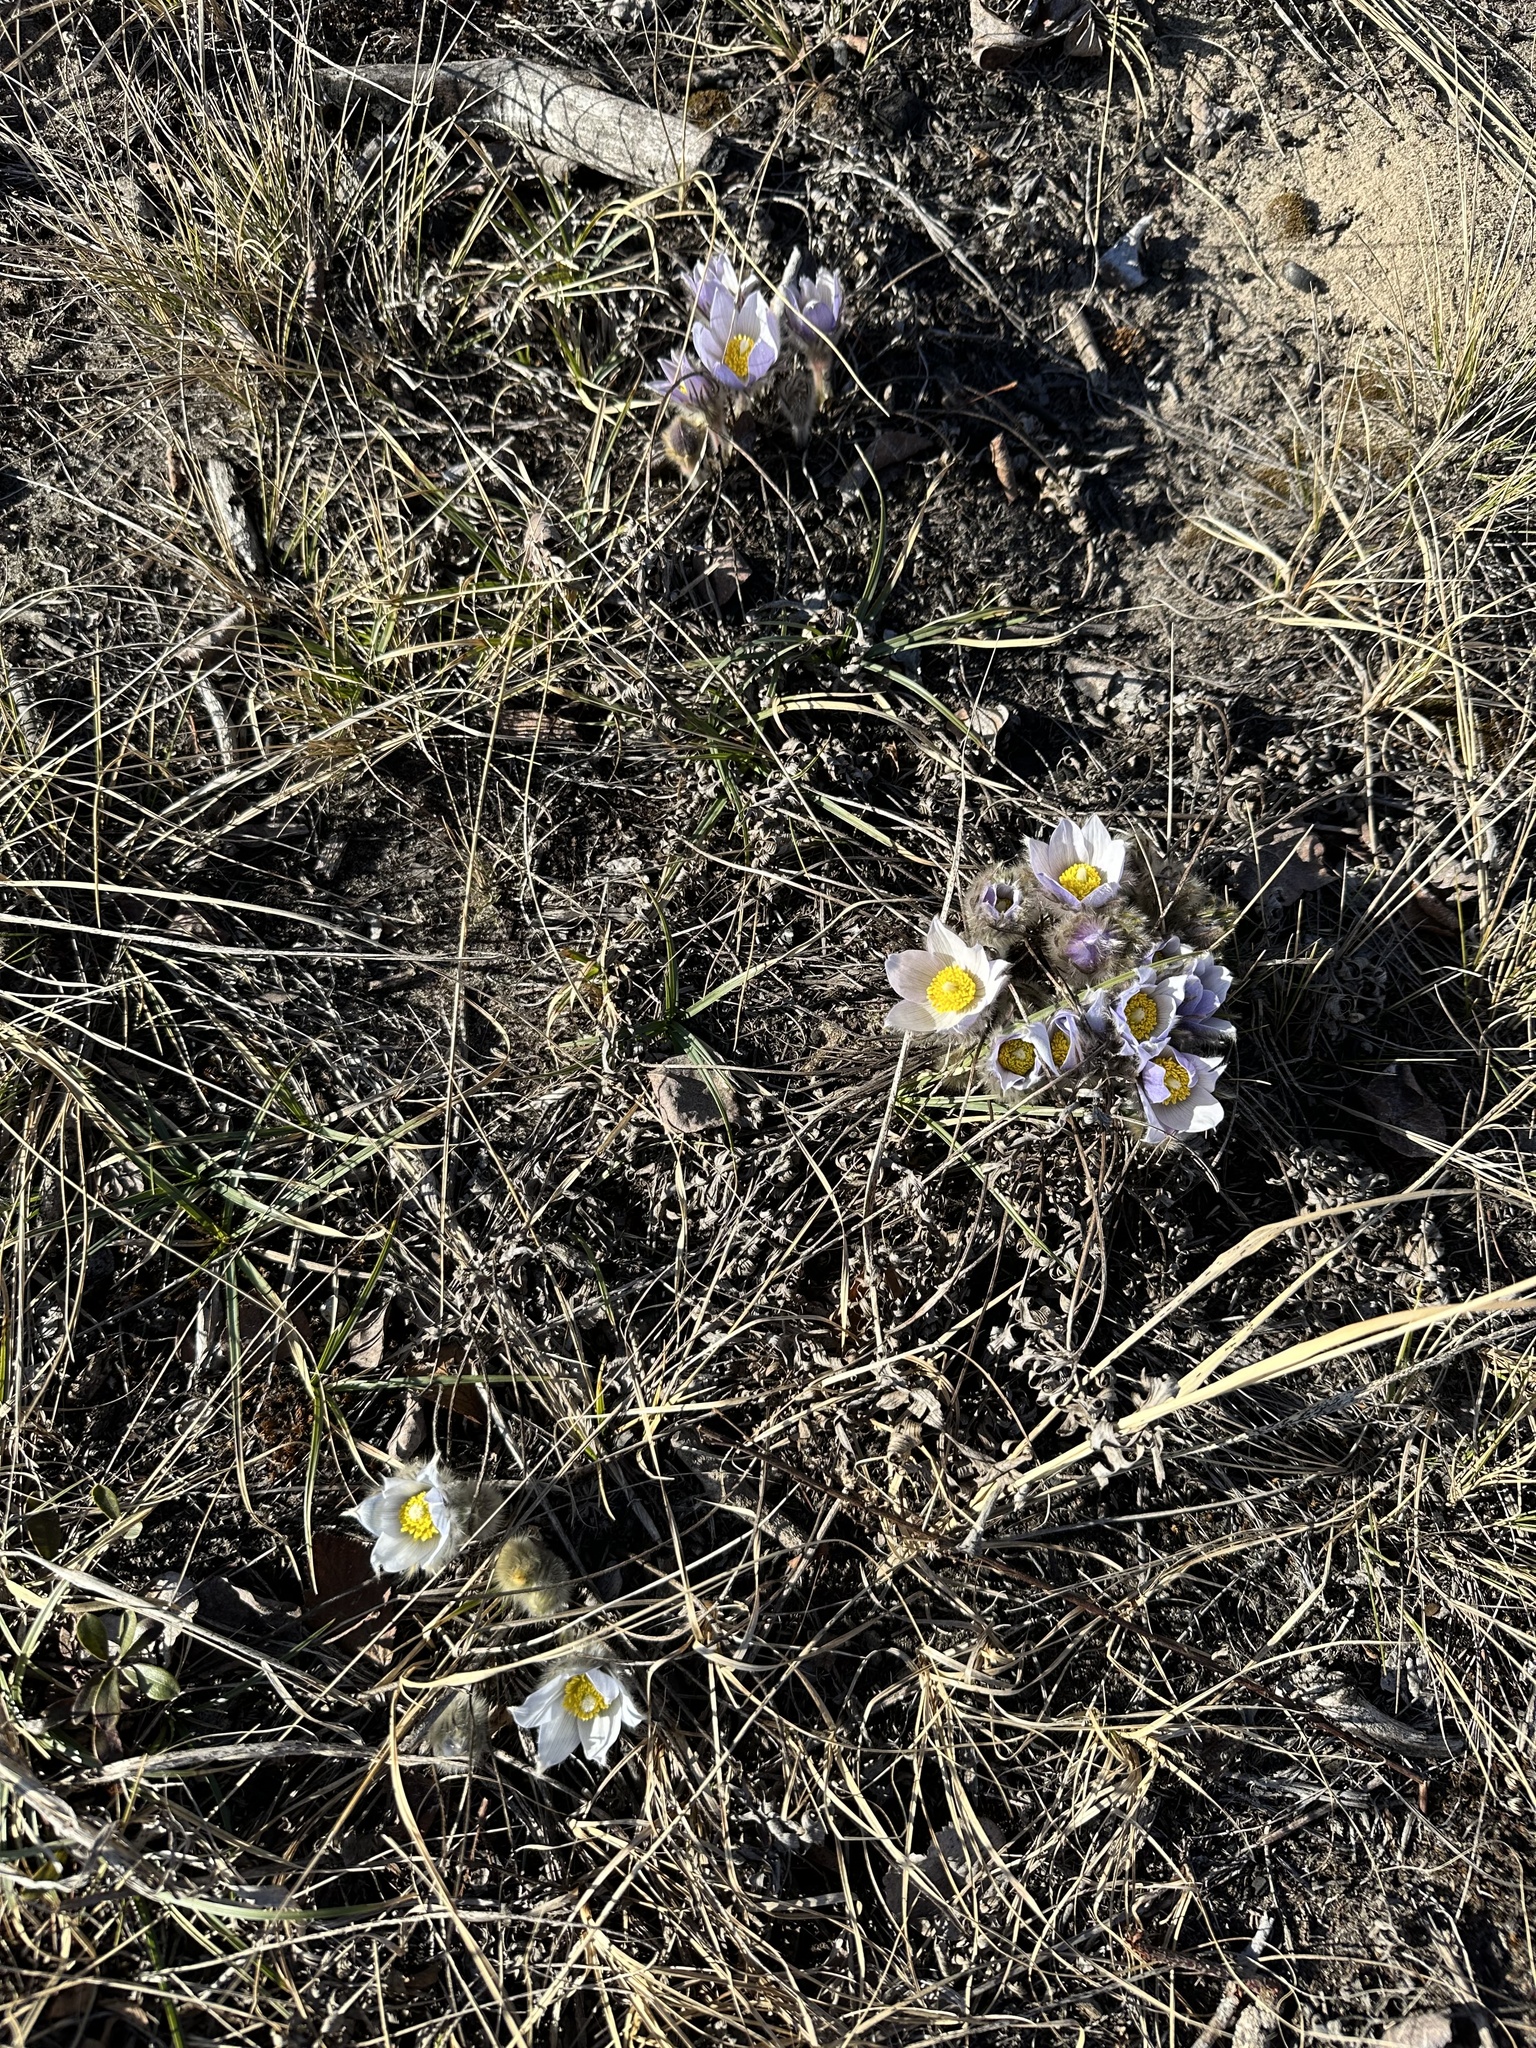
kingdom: Plantae
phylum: Tracheophyta
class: Magnoliopsida
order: Ranunculales
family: Ranunculaceae
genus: Pulsatilla
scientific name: Pulsatilla nuttalliana
